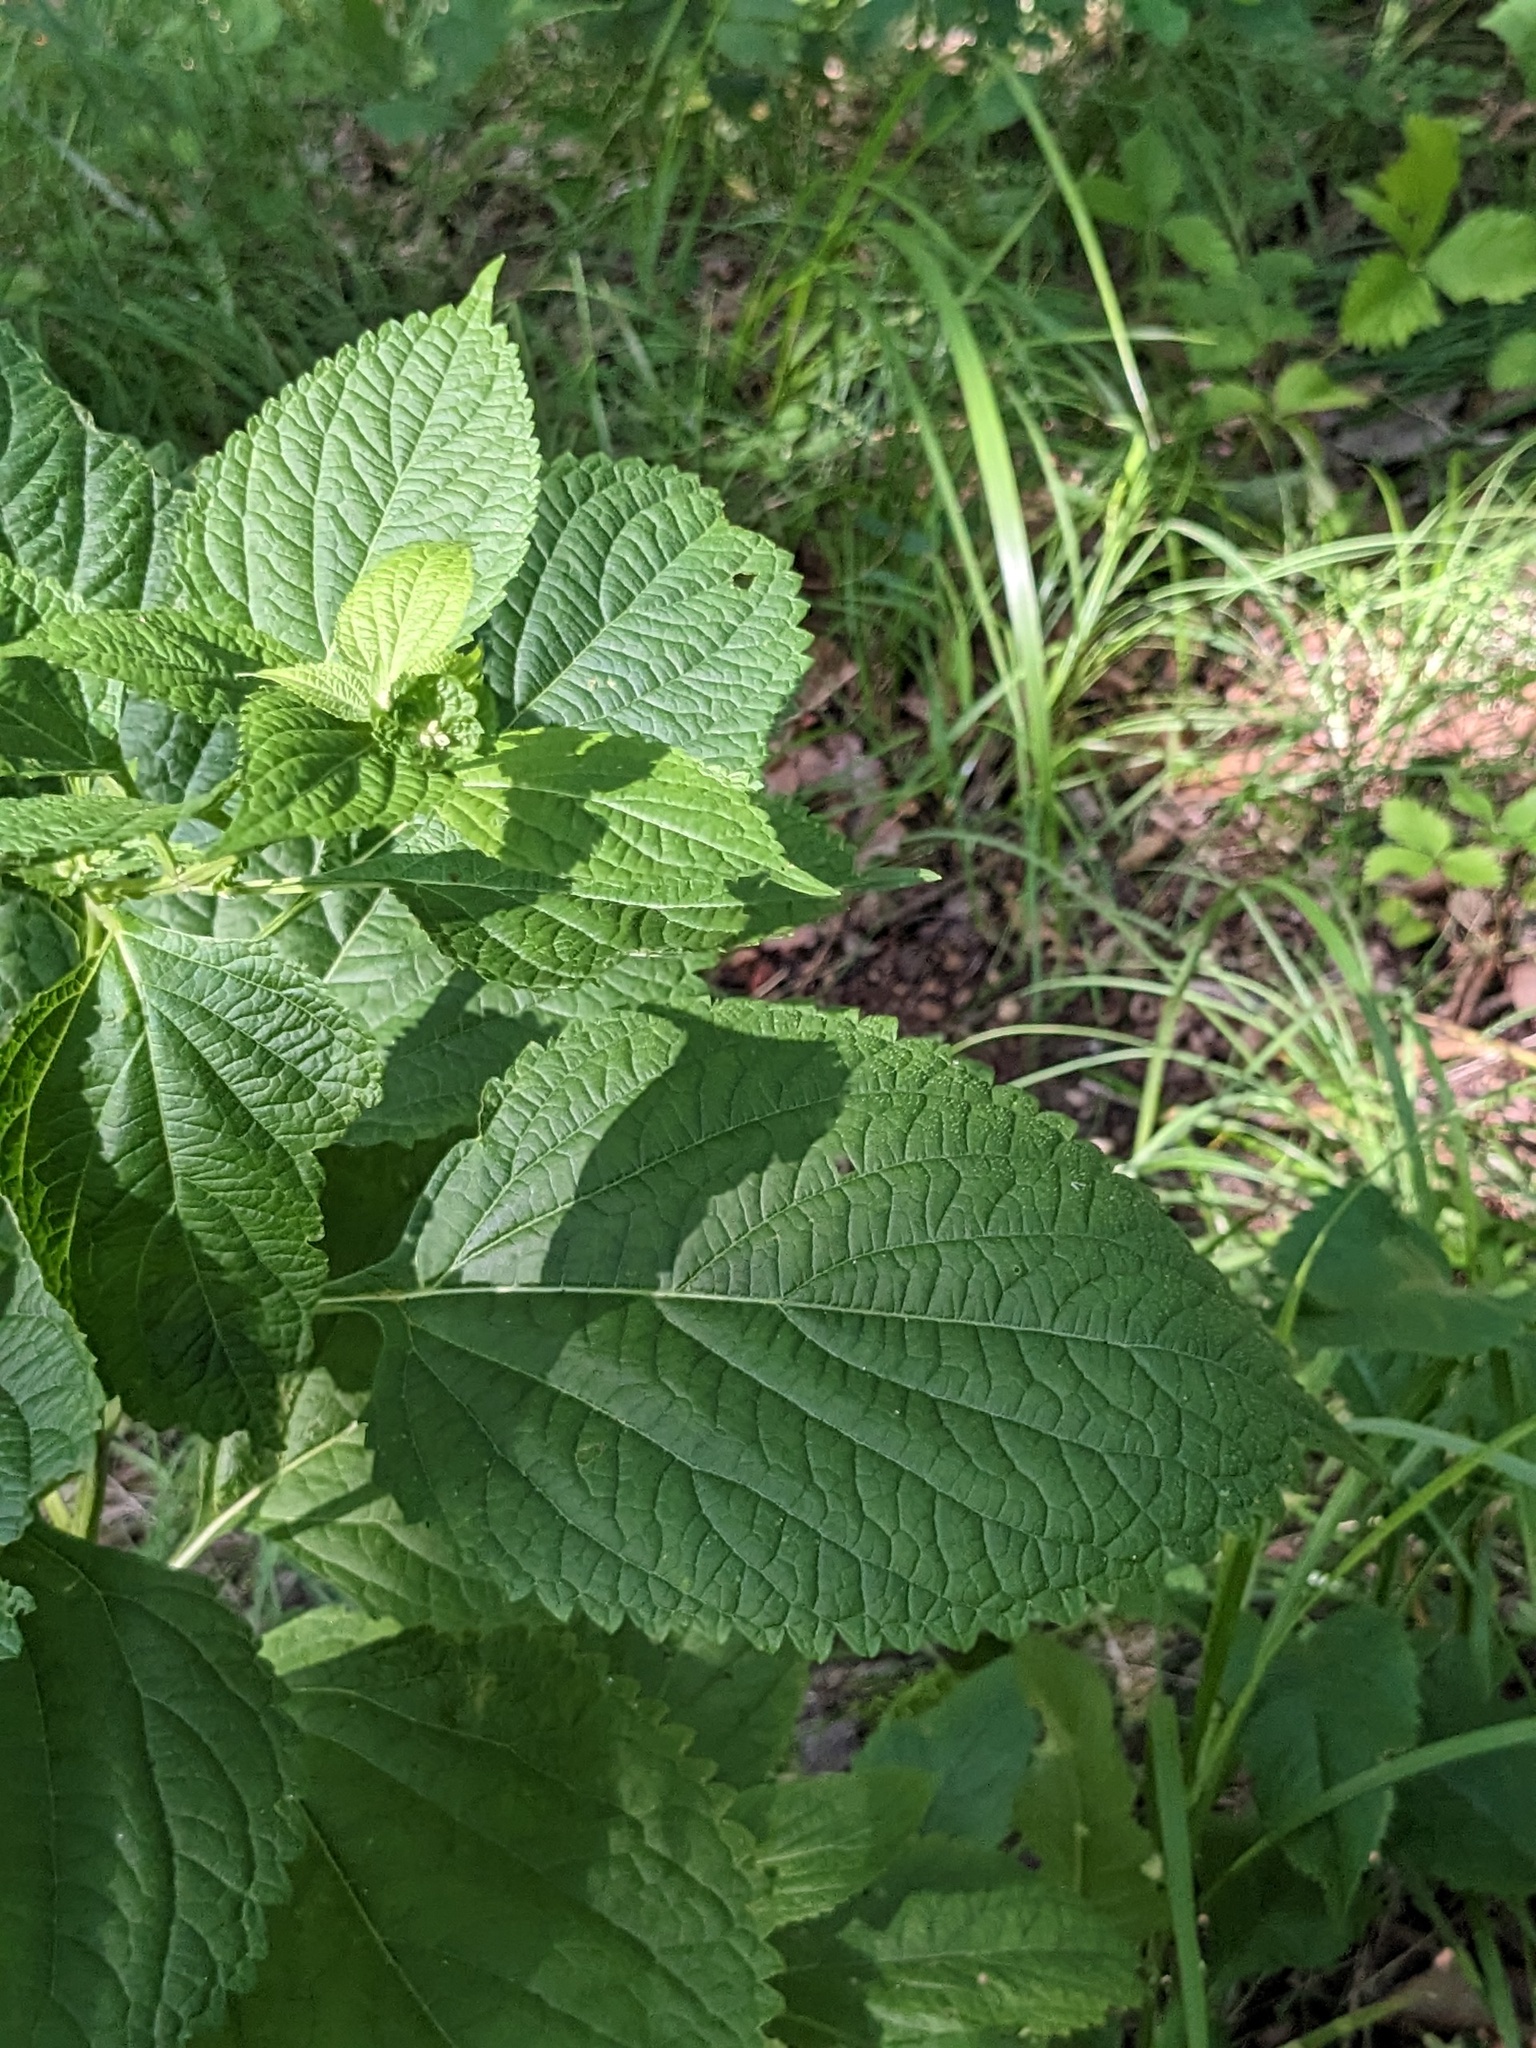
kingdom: Plantae
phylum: Tracheophyta
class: Magnoliopsida
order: Lamiales
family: Lamiaceae
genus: Isodon
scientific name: Isodon japonicus
